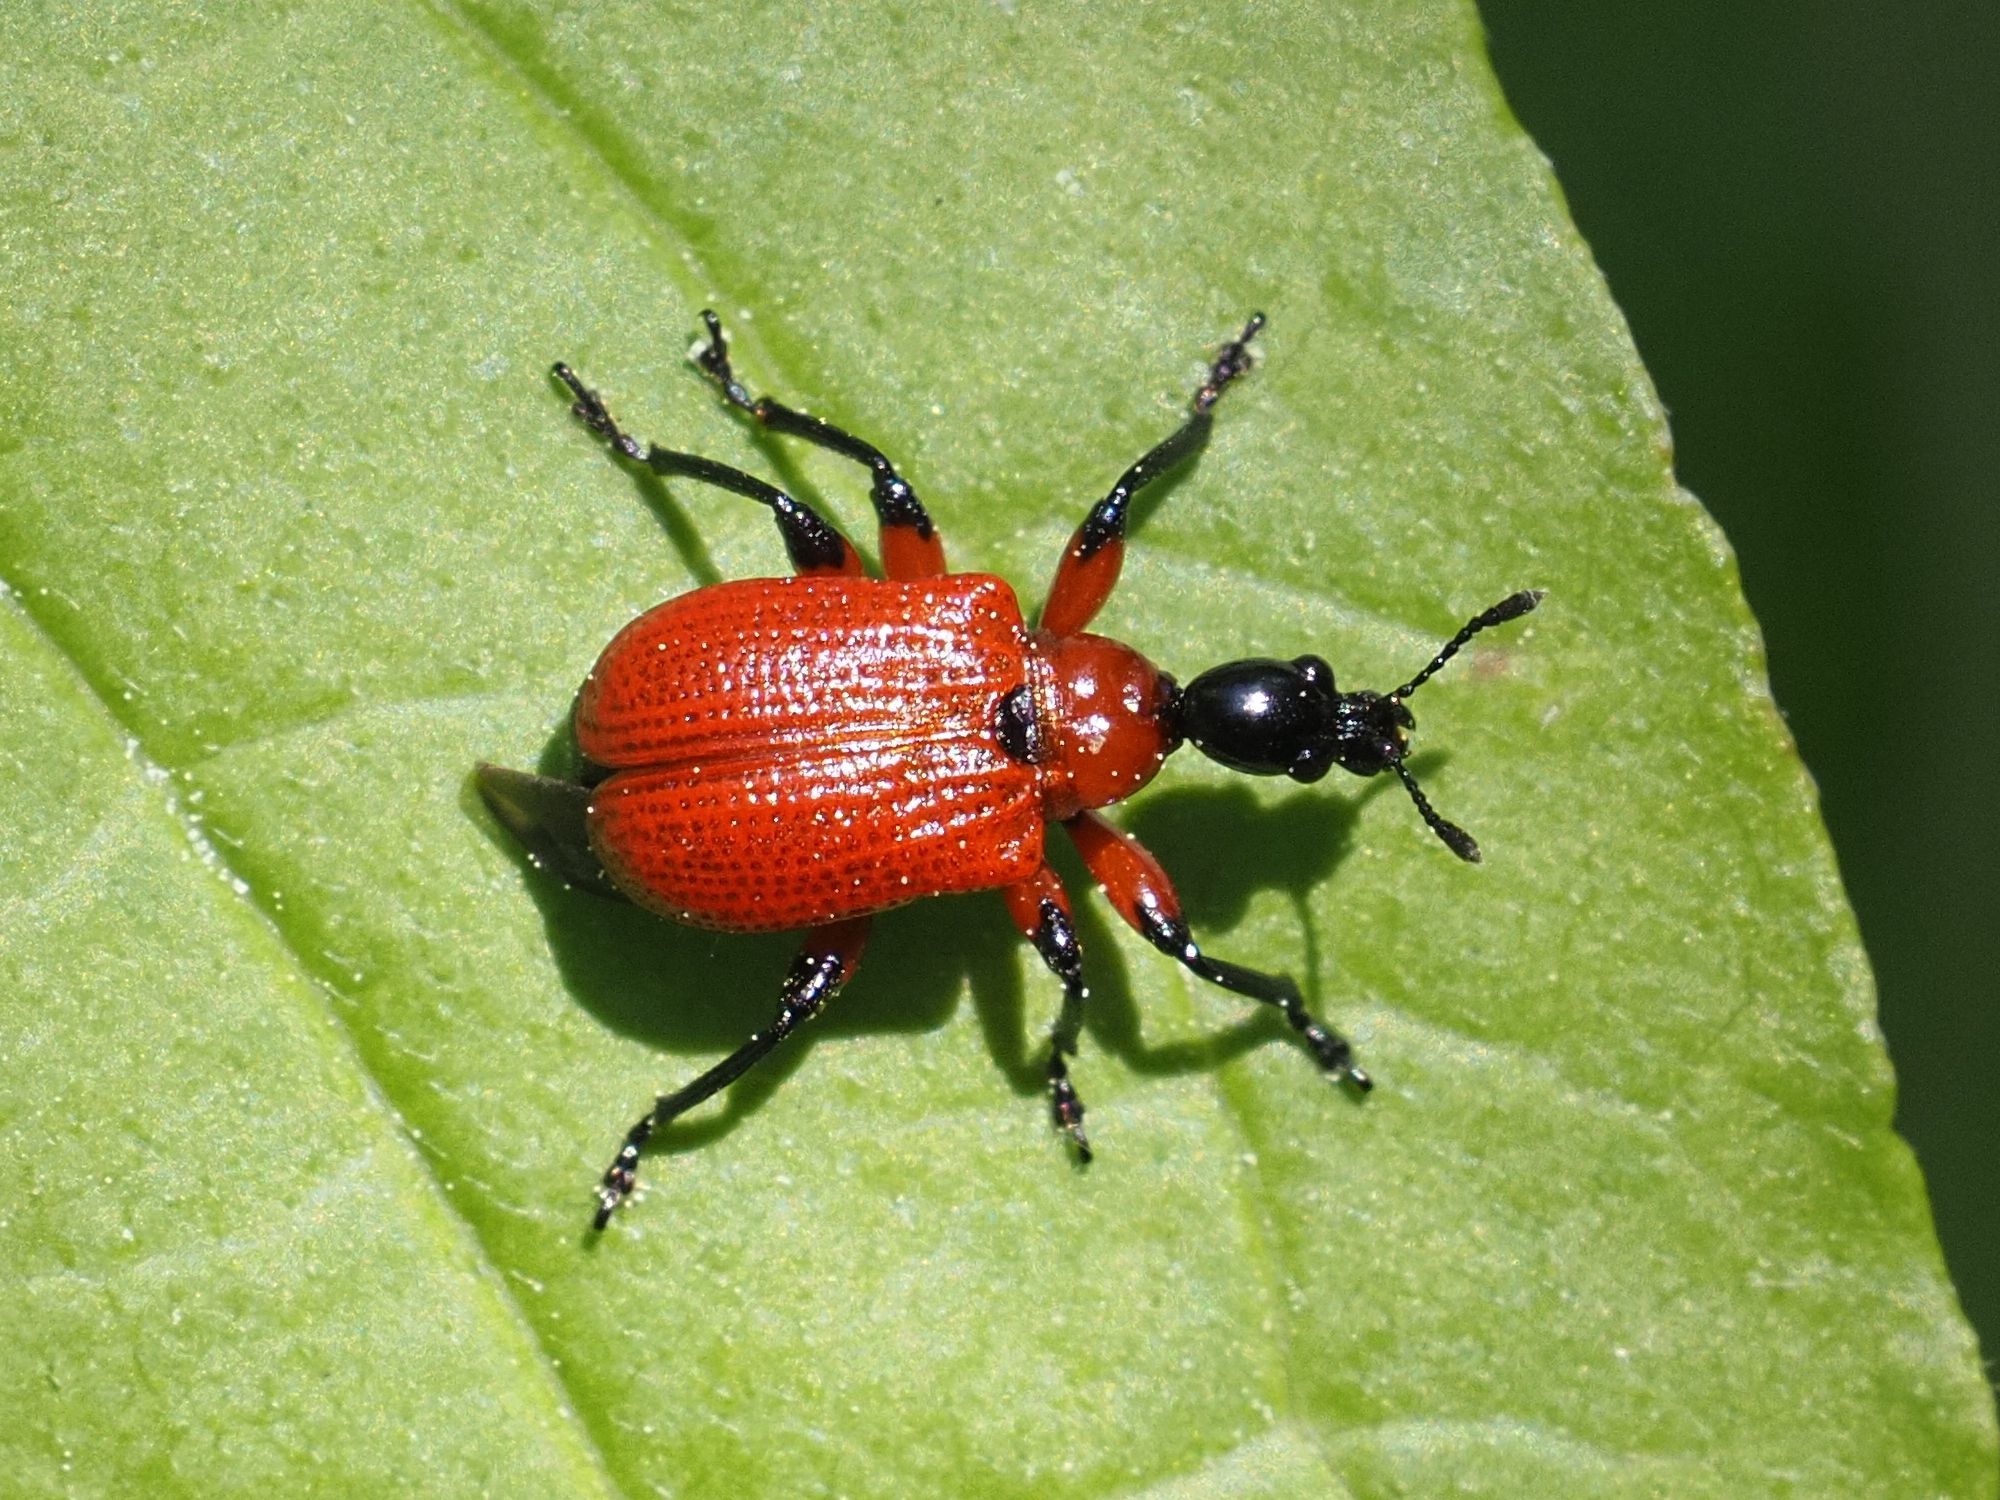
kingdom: Animalia
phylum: Arthropoda
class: Insecta
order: Coleoptera
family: Attelabidae
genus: Apoderus
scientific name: Apoderus coryli
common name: Hazel leaf roller
